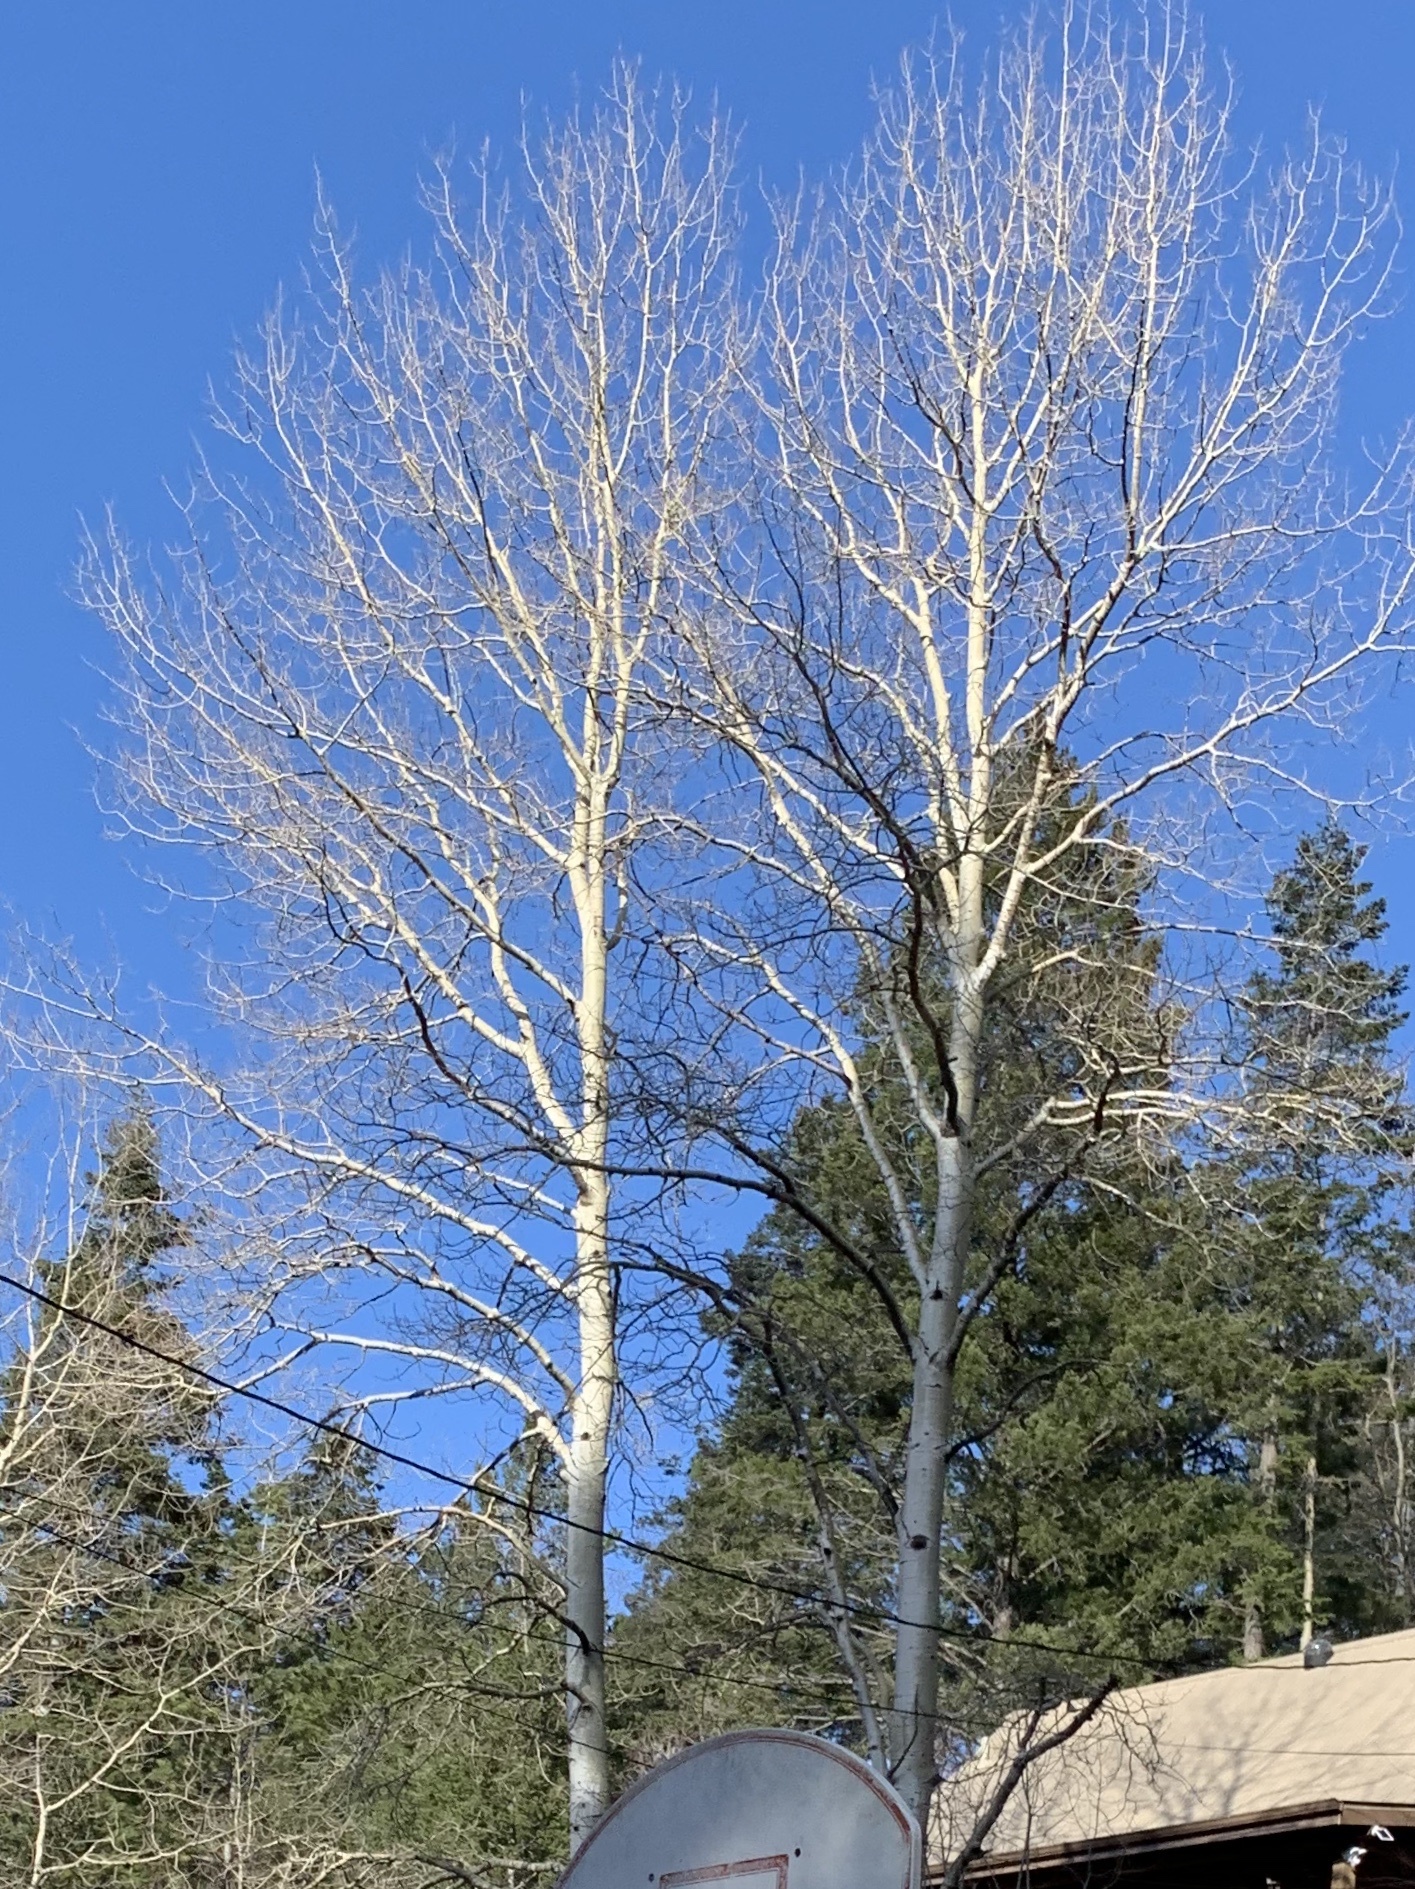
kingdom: Plantae
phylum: Tracheophyta
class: Magnoliopsida
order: Malpighiales
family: Salicaceae
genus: Populus
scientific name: Populus tremuloides
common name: Quaking aspen
